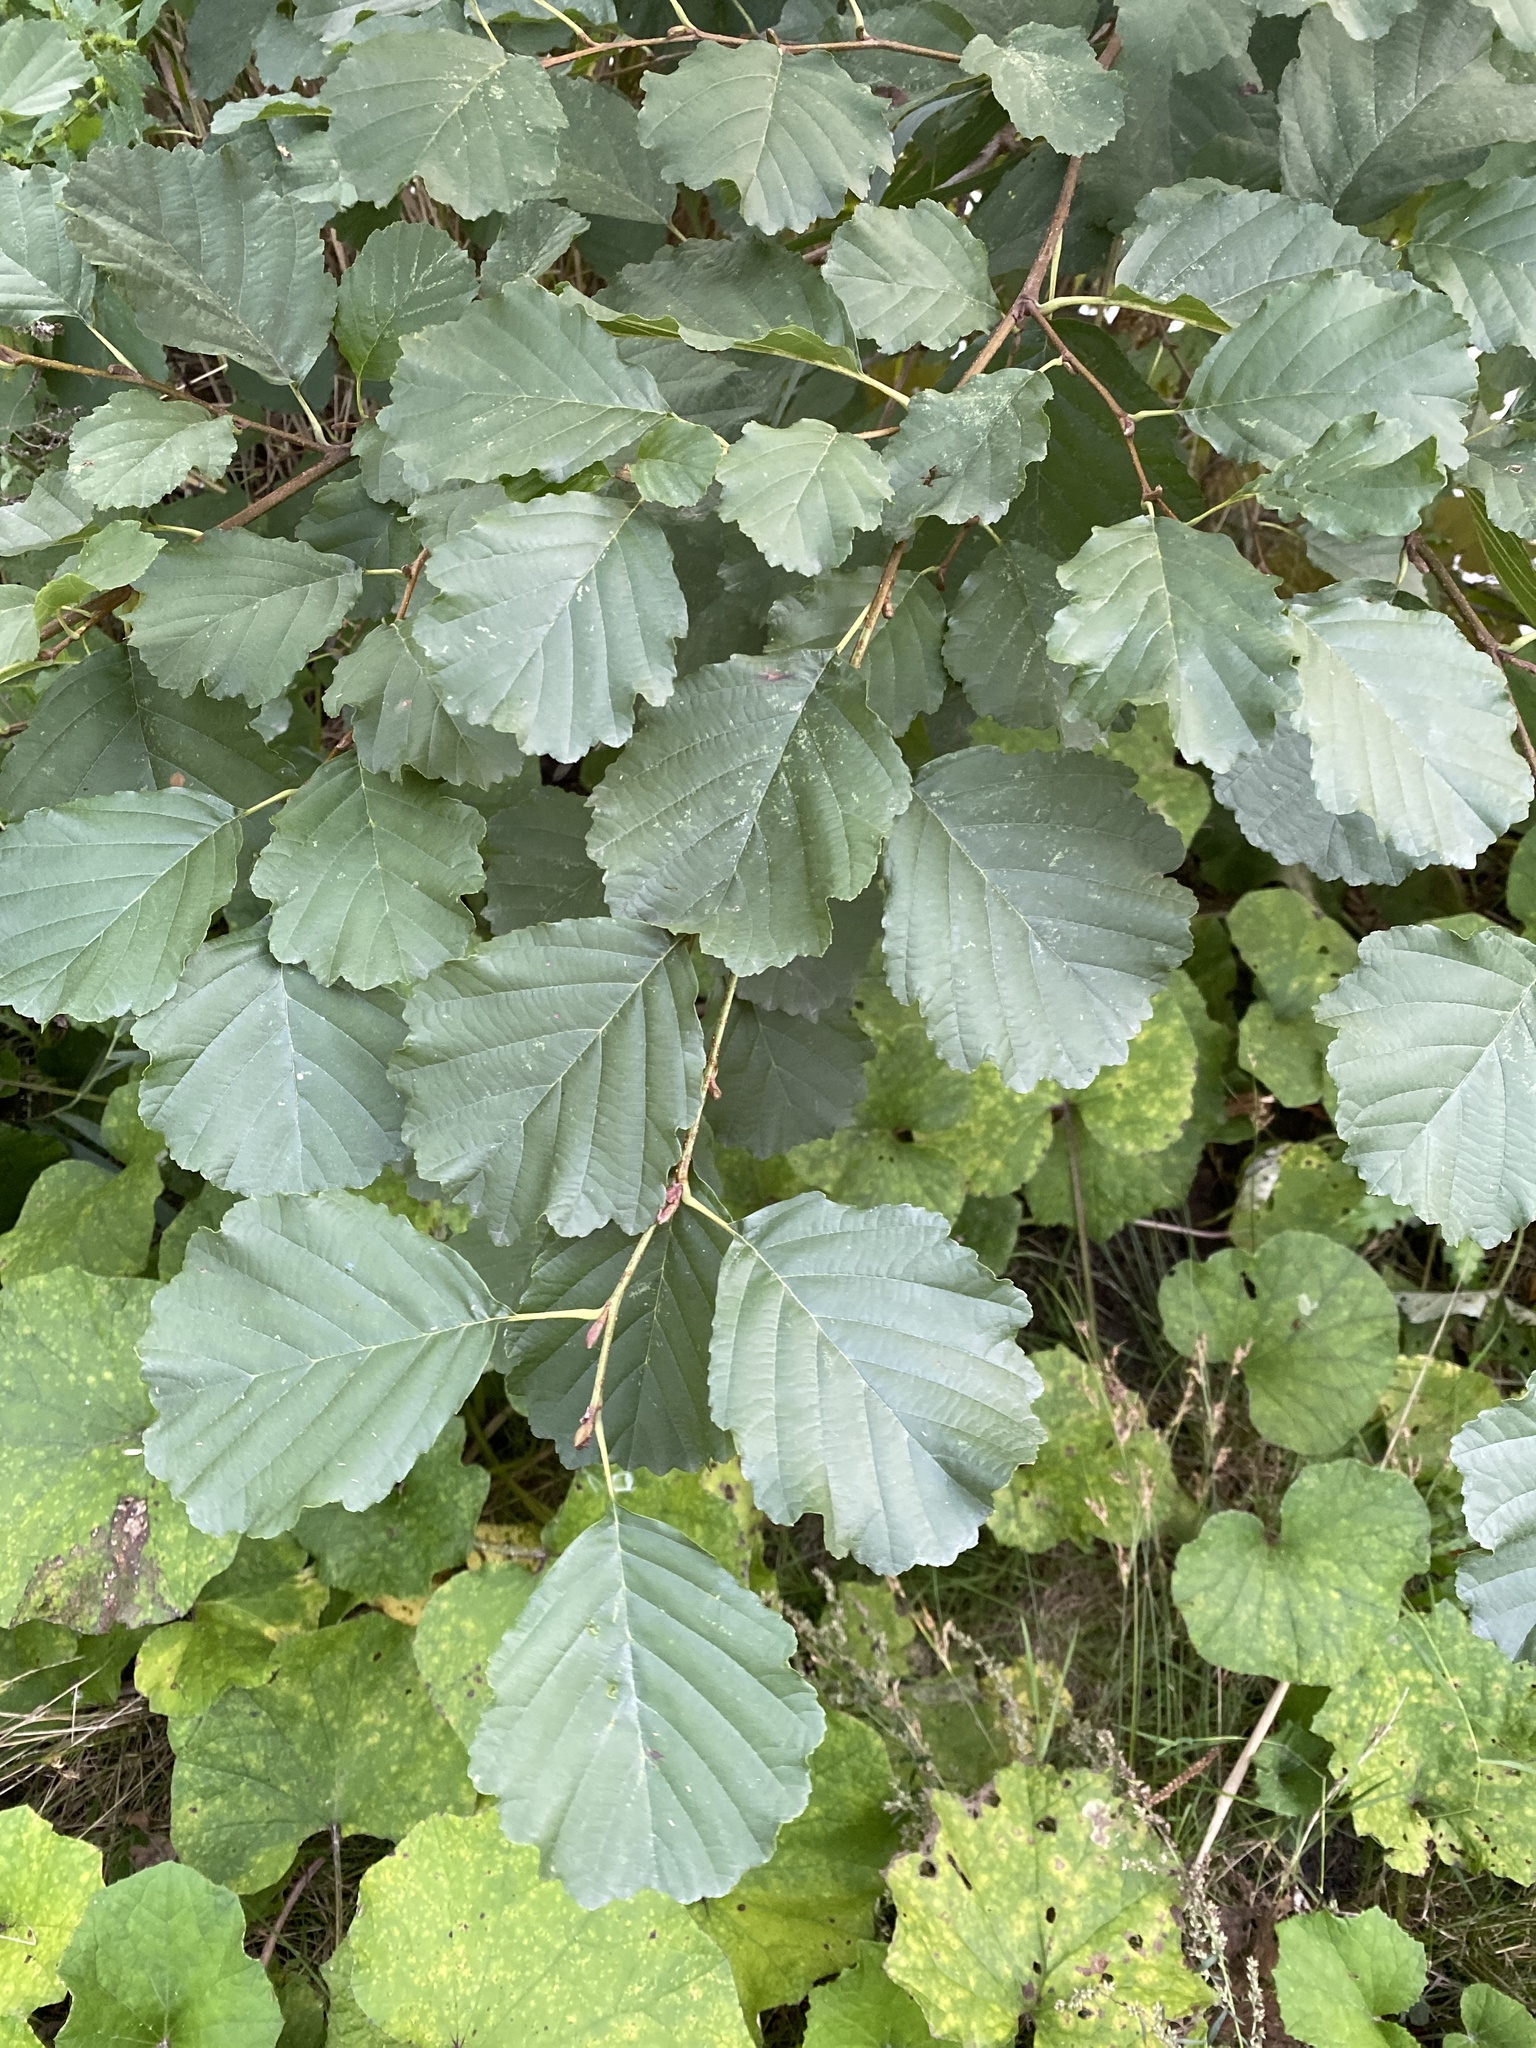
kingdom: Plantae
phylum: Tracheophyta
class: Magnoliopsida
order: Fagales
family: Betulaceae
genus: Alnus
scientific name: Alnus glutinosa
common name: Black alder
